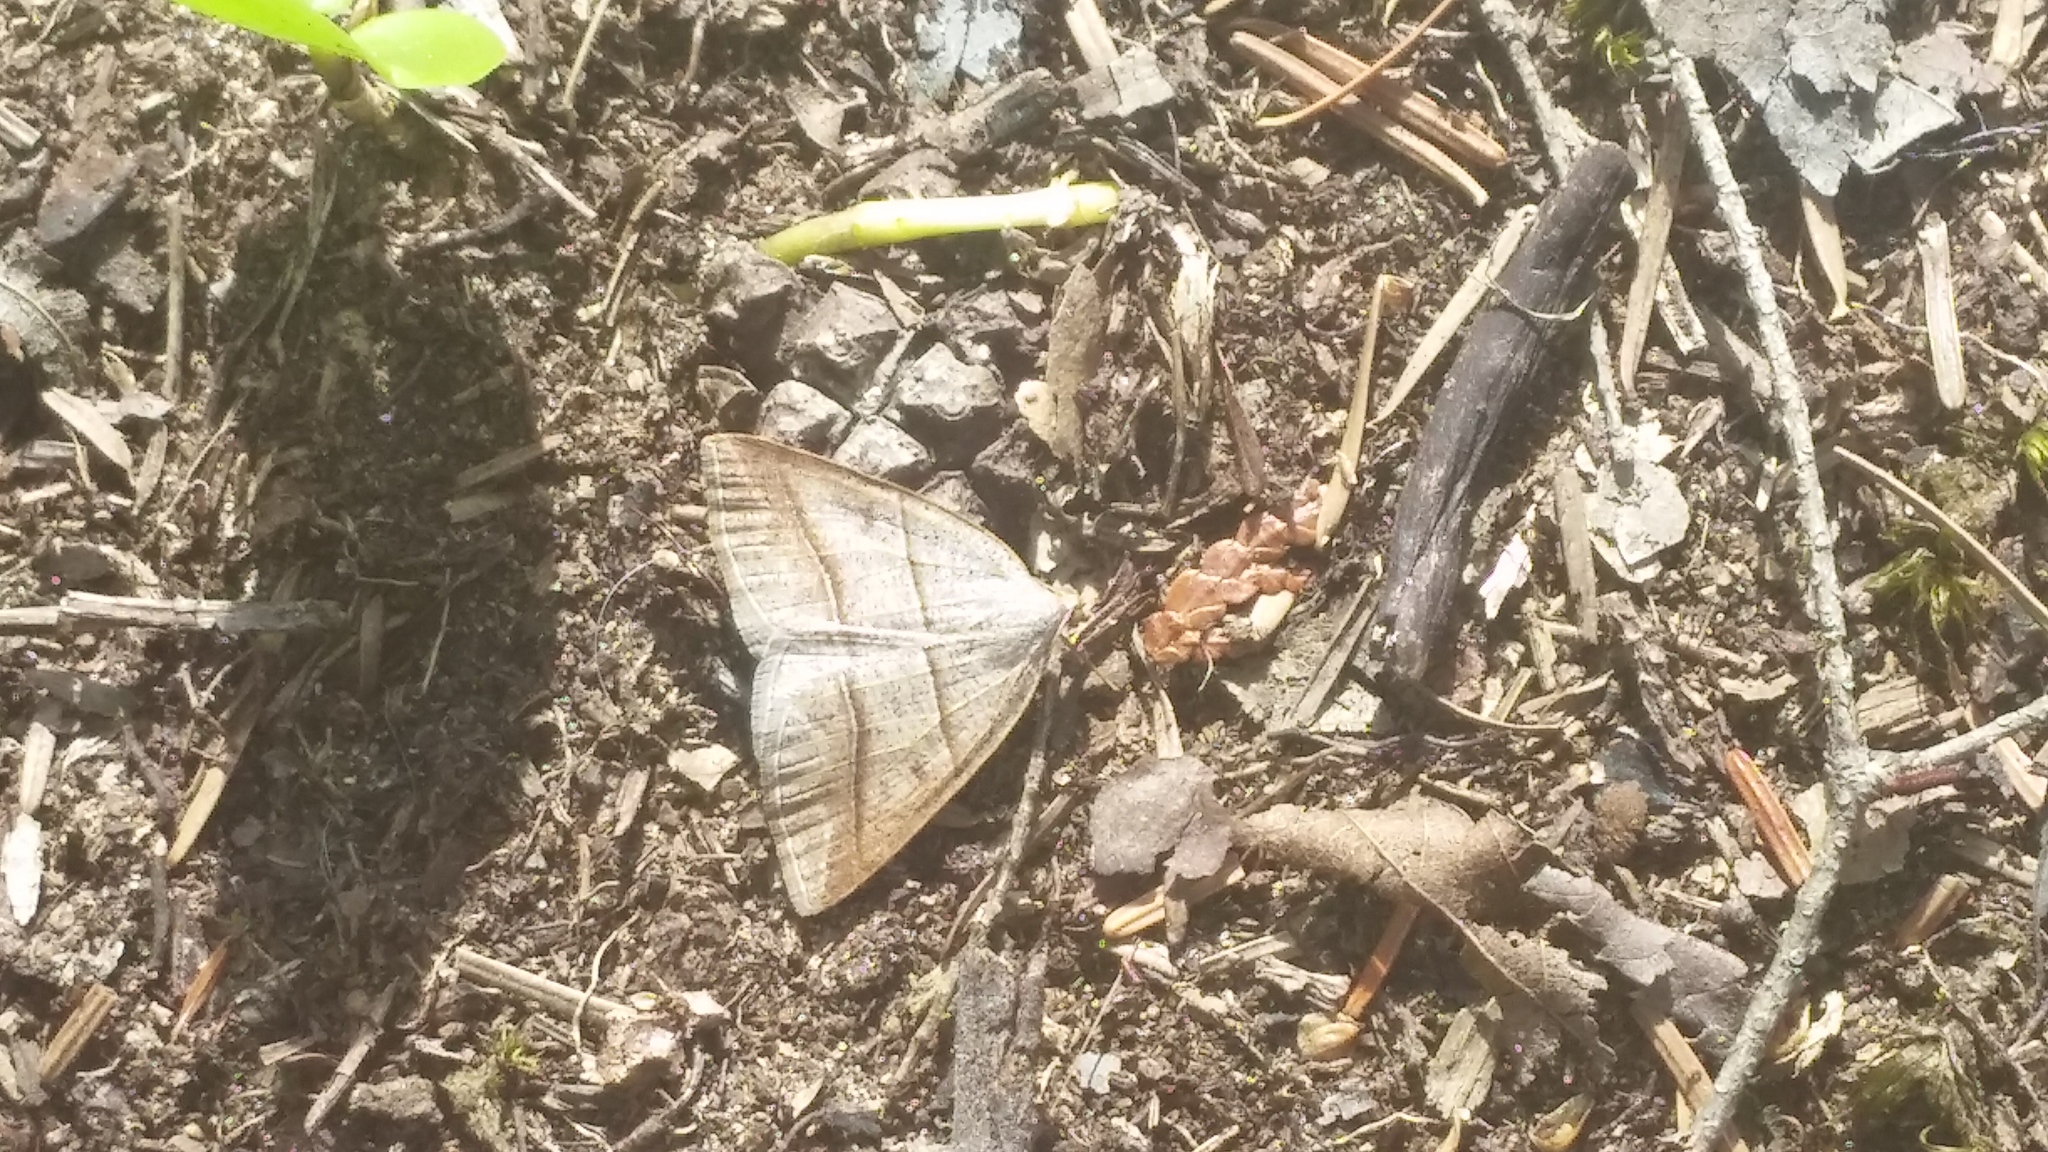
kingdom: Animalia
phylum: Arthropoda
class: Insecta
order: Lepidoptera
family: Pterophoridae
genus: Pterophorus
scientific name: Pterophorus Petrophora subaequaria
